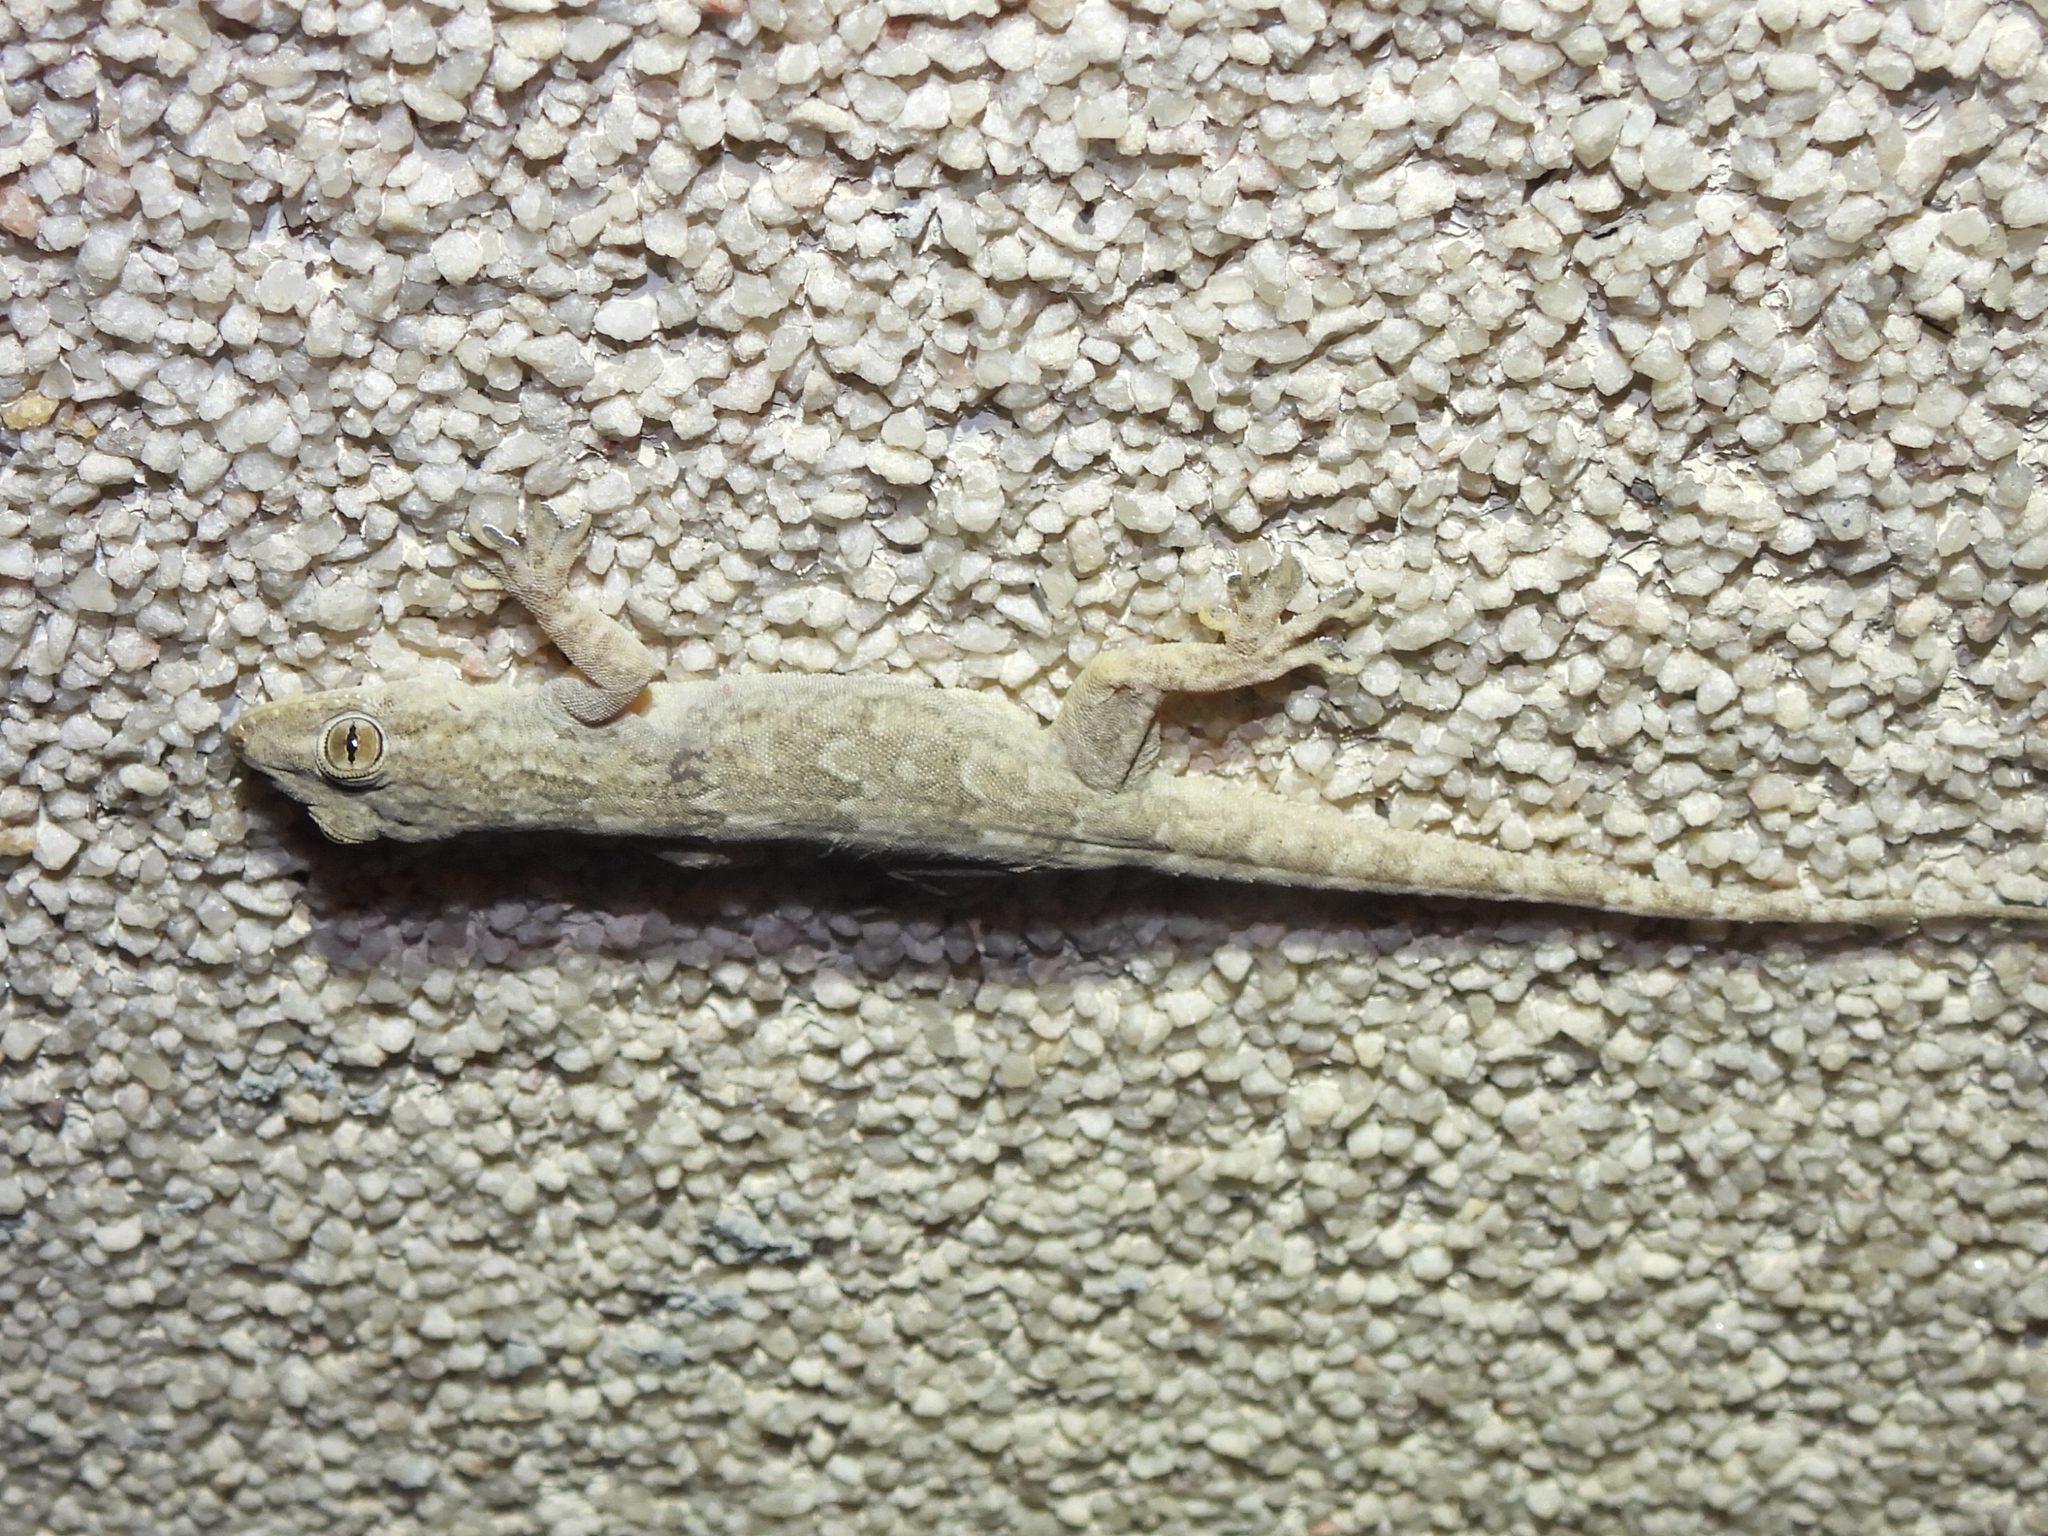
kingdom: Animalia
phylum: Chordata
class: Squamata
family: Gekkonidae
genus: Hemidactylus
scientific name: Hemidactylus flaviviridis
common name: Northern house gecko
